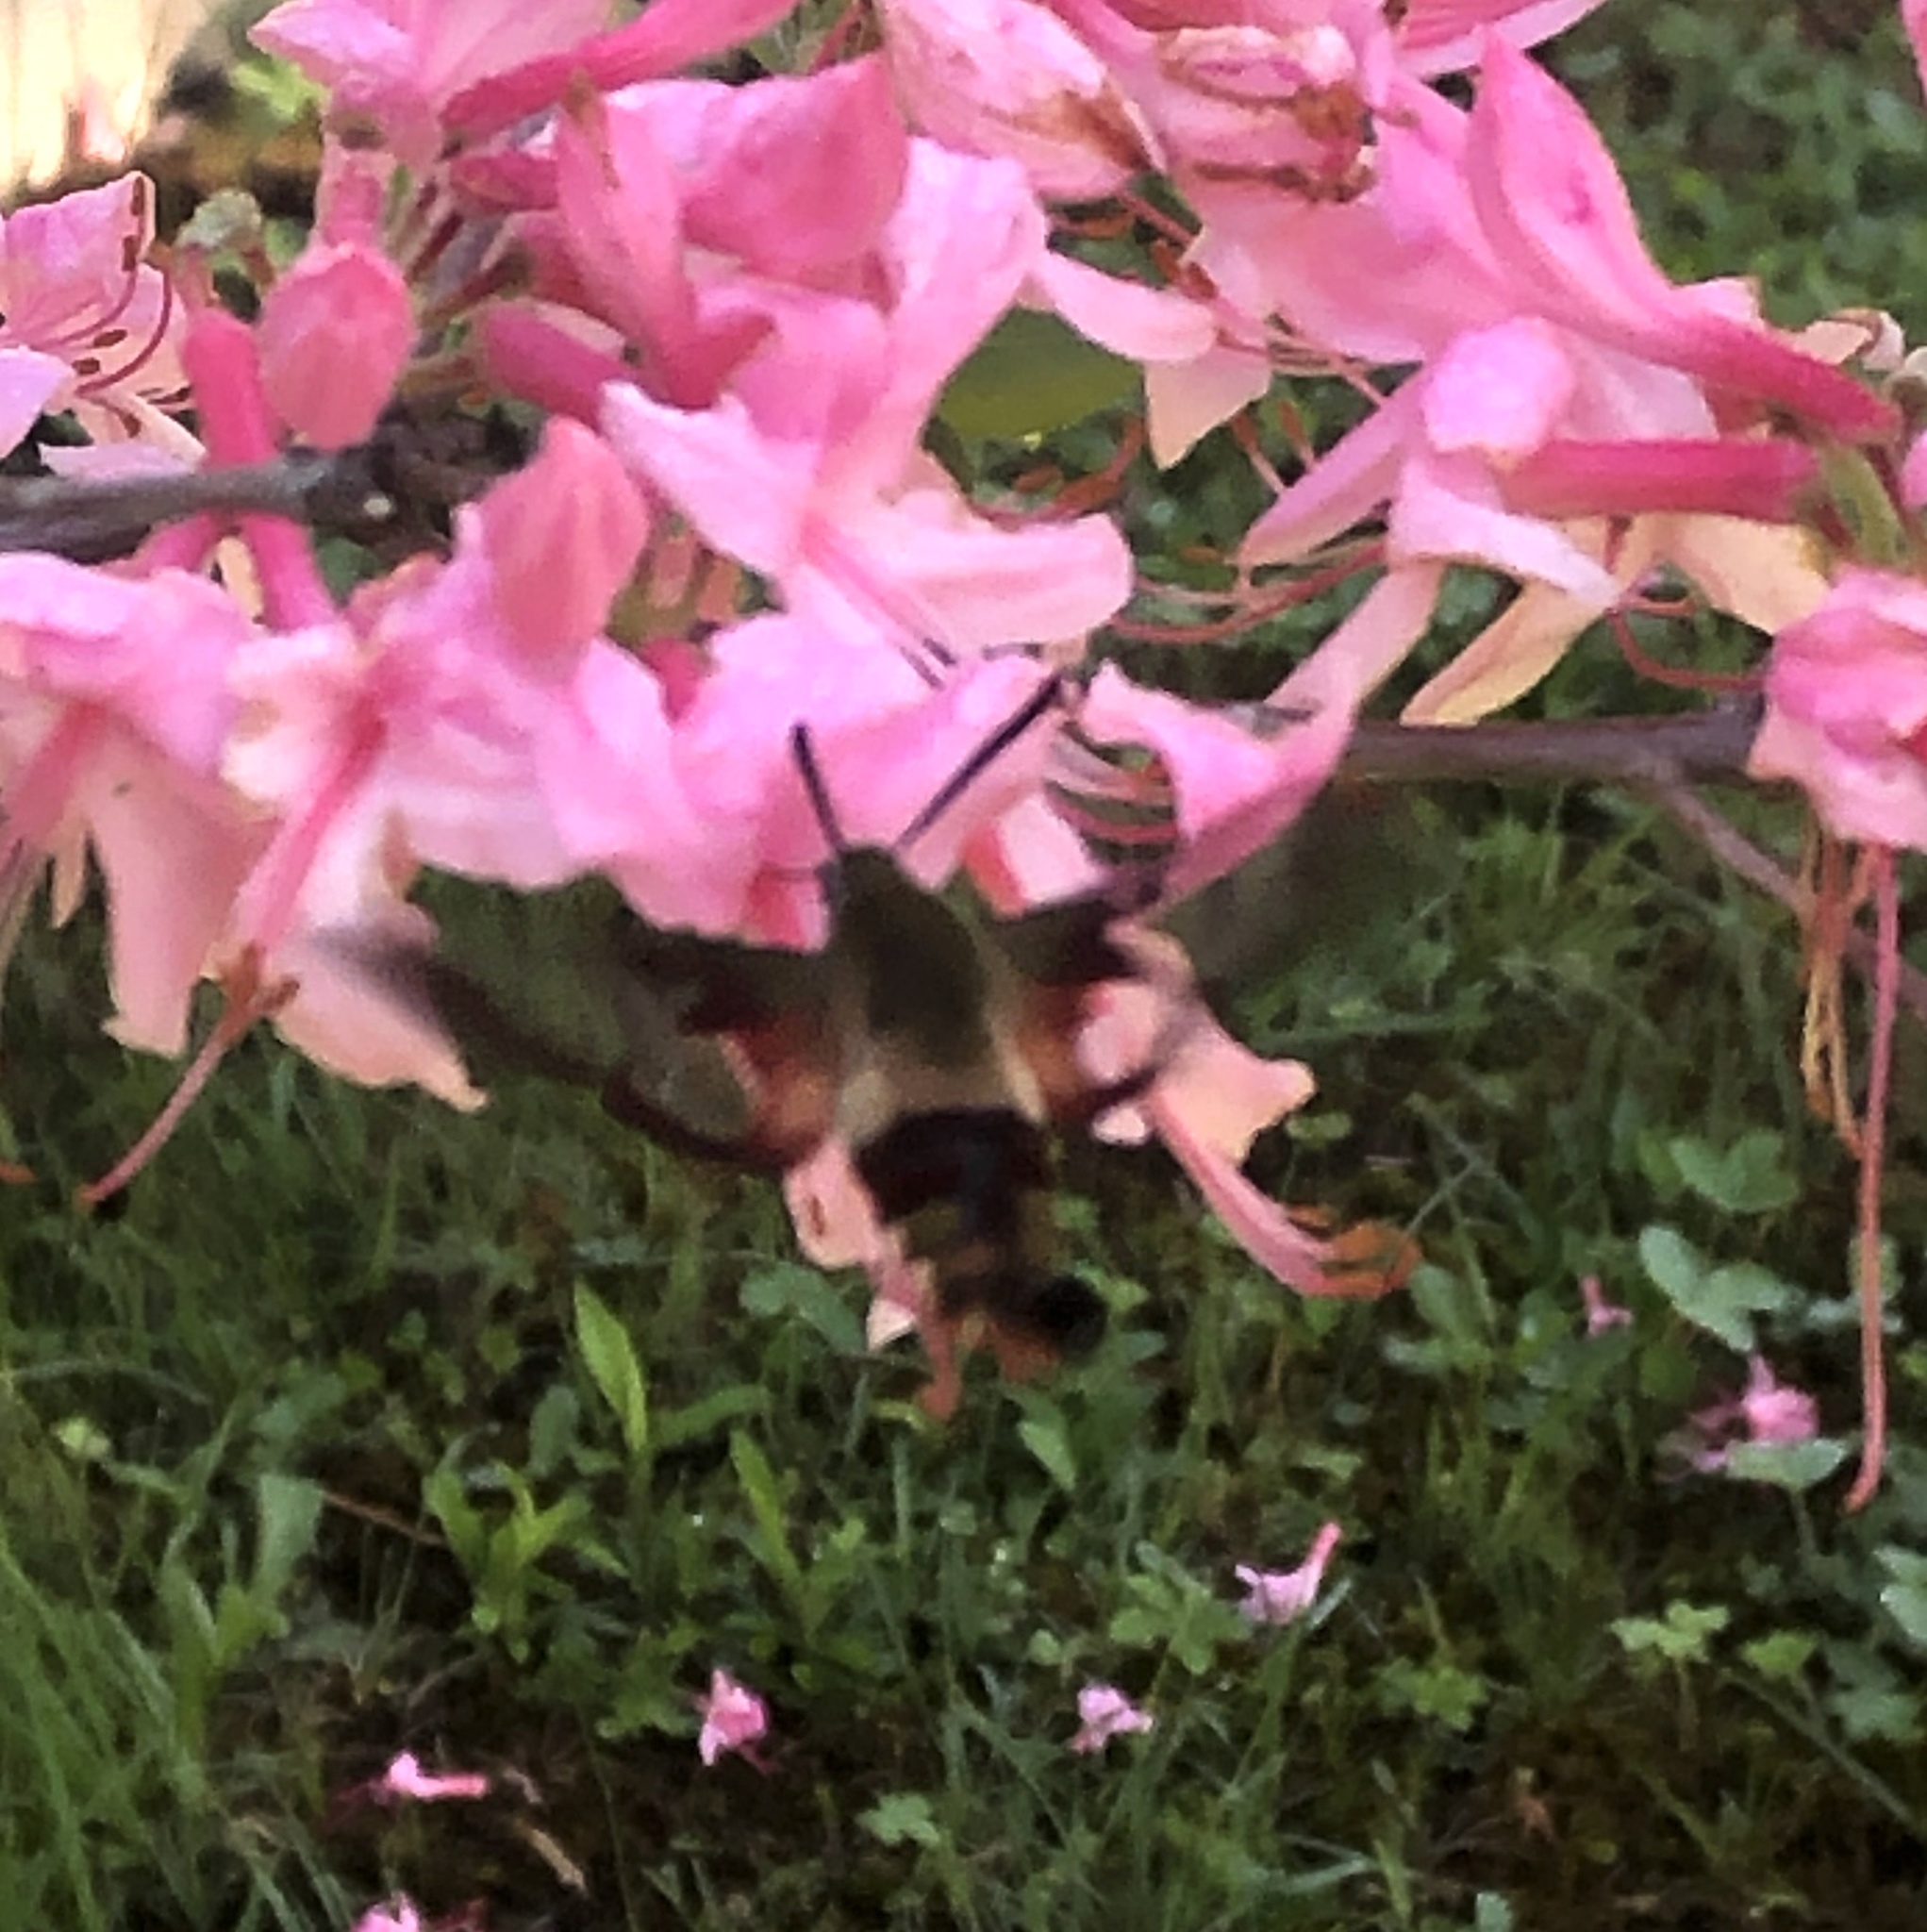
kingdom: Animalia
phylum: Arthropoda
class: Insecta
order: Lepidoptera
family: Sphingidae
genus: Hemaris
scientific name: Hemaris diffinis
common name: Bumblebee moth
